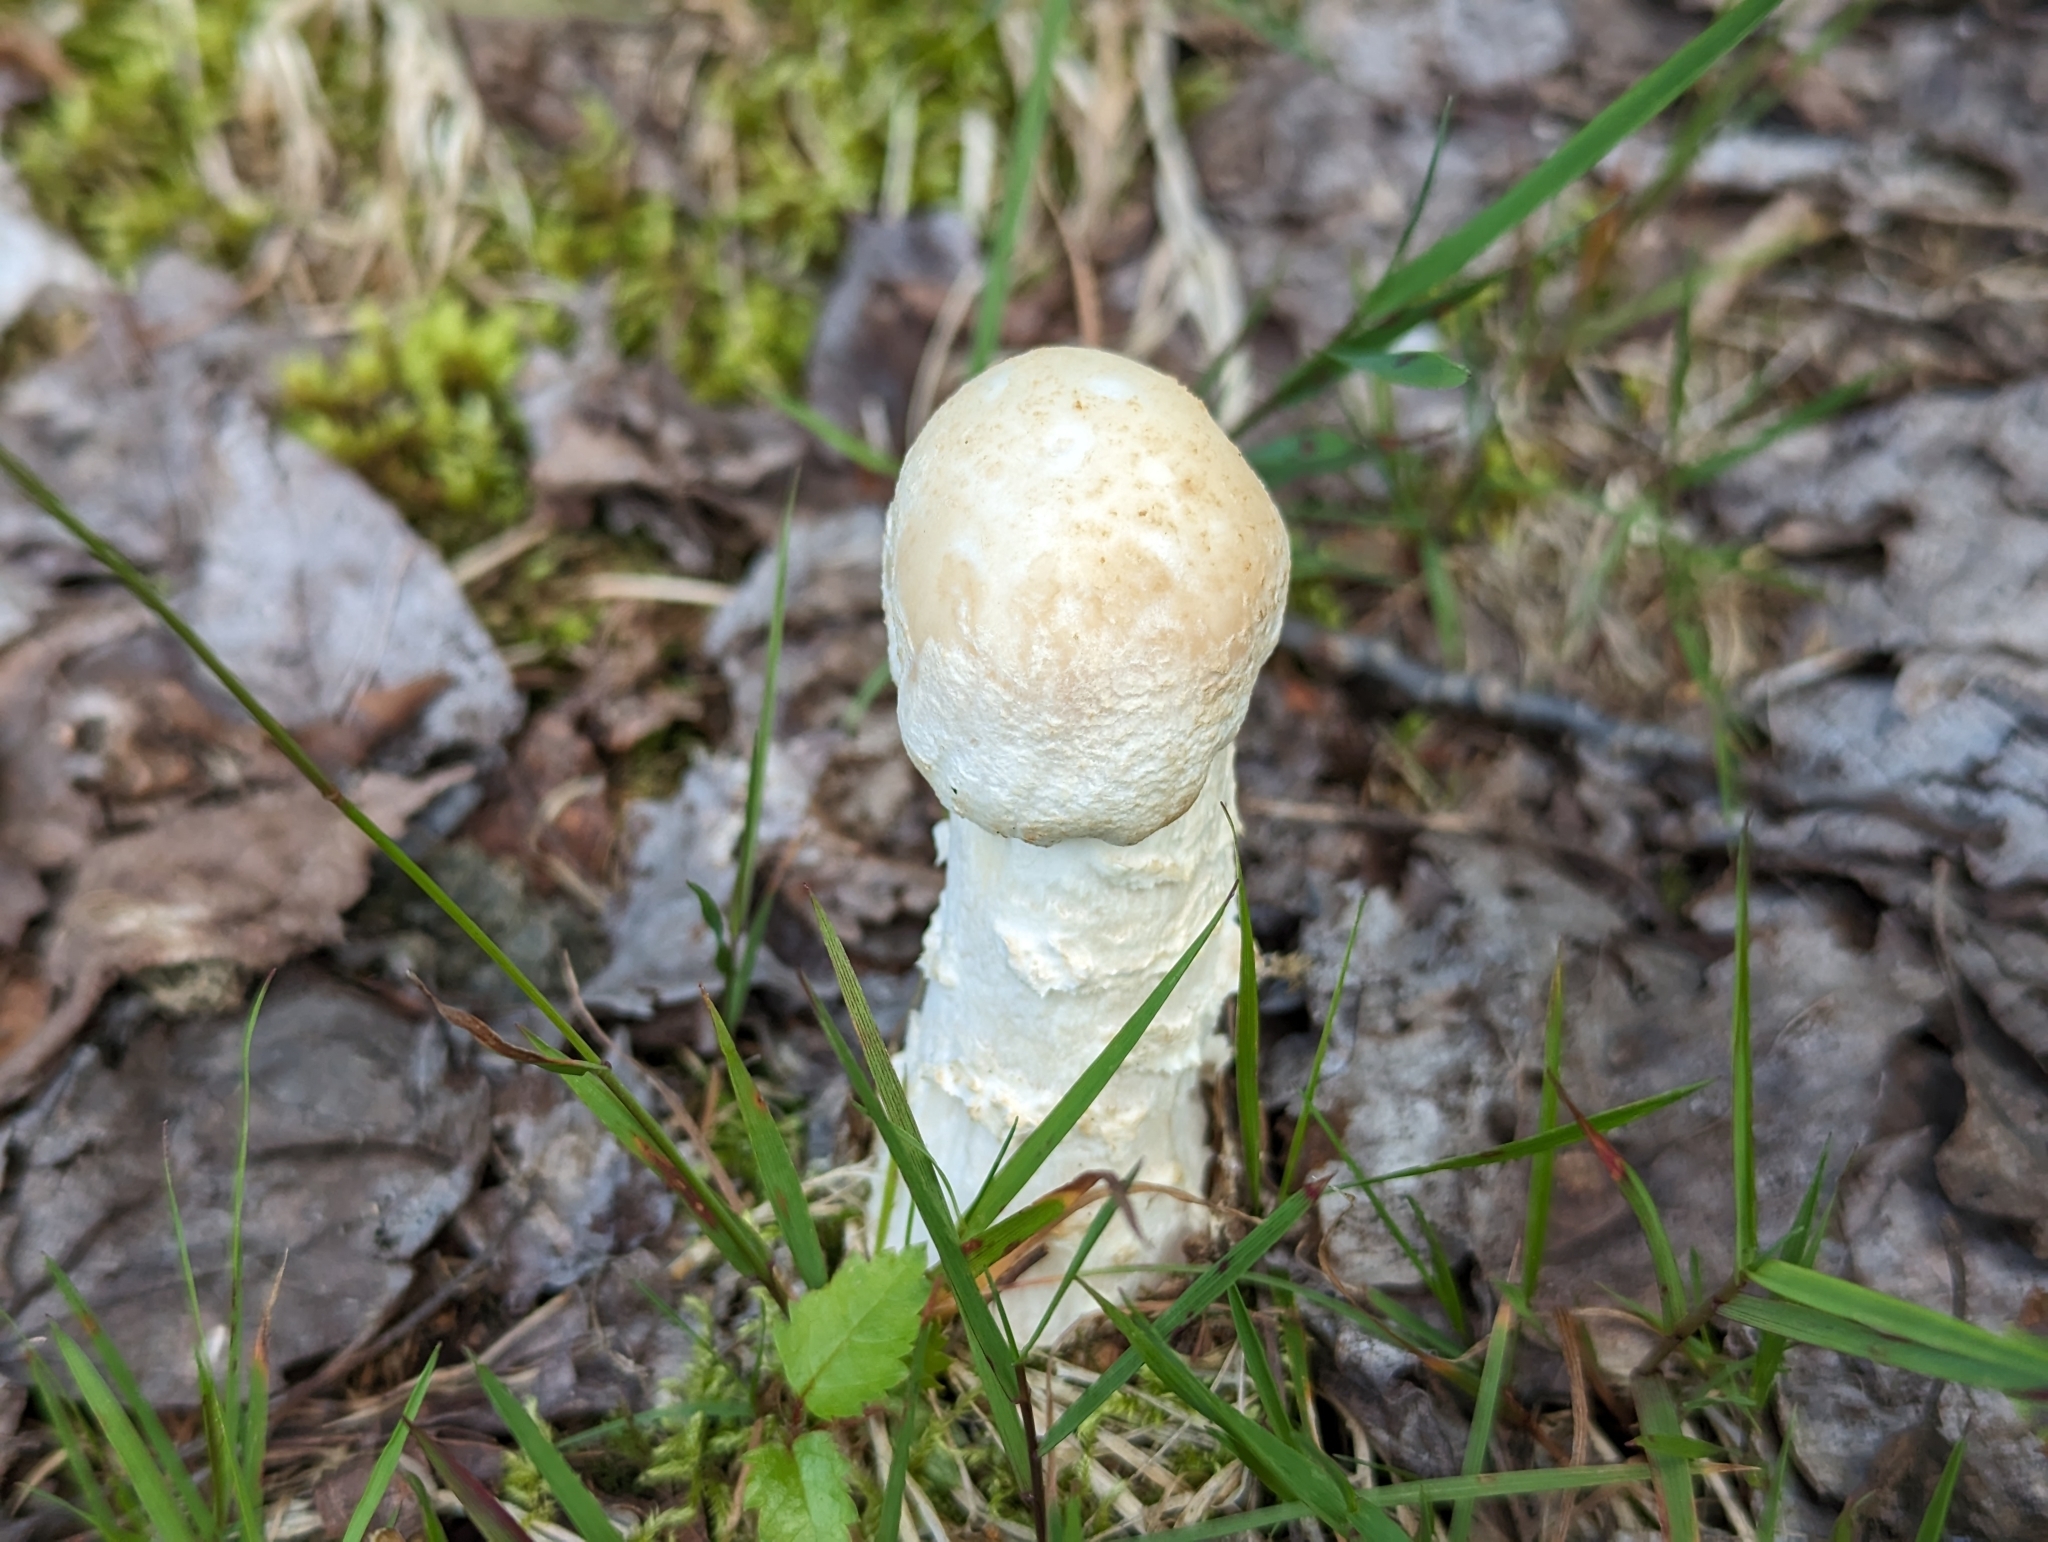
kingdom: Fungi
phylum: Ascomycota
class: Sordariomycetes
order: Hypocreales
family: Hypocreaceae
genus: Hypomyces
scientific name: Hypomyces hyalinus
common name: Amanita mold
